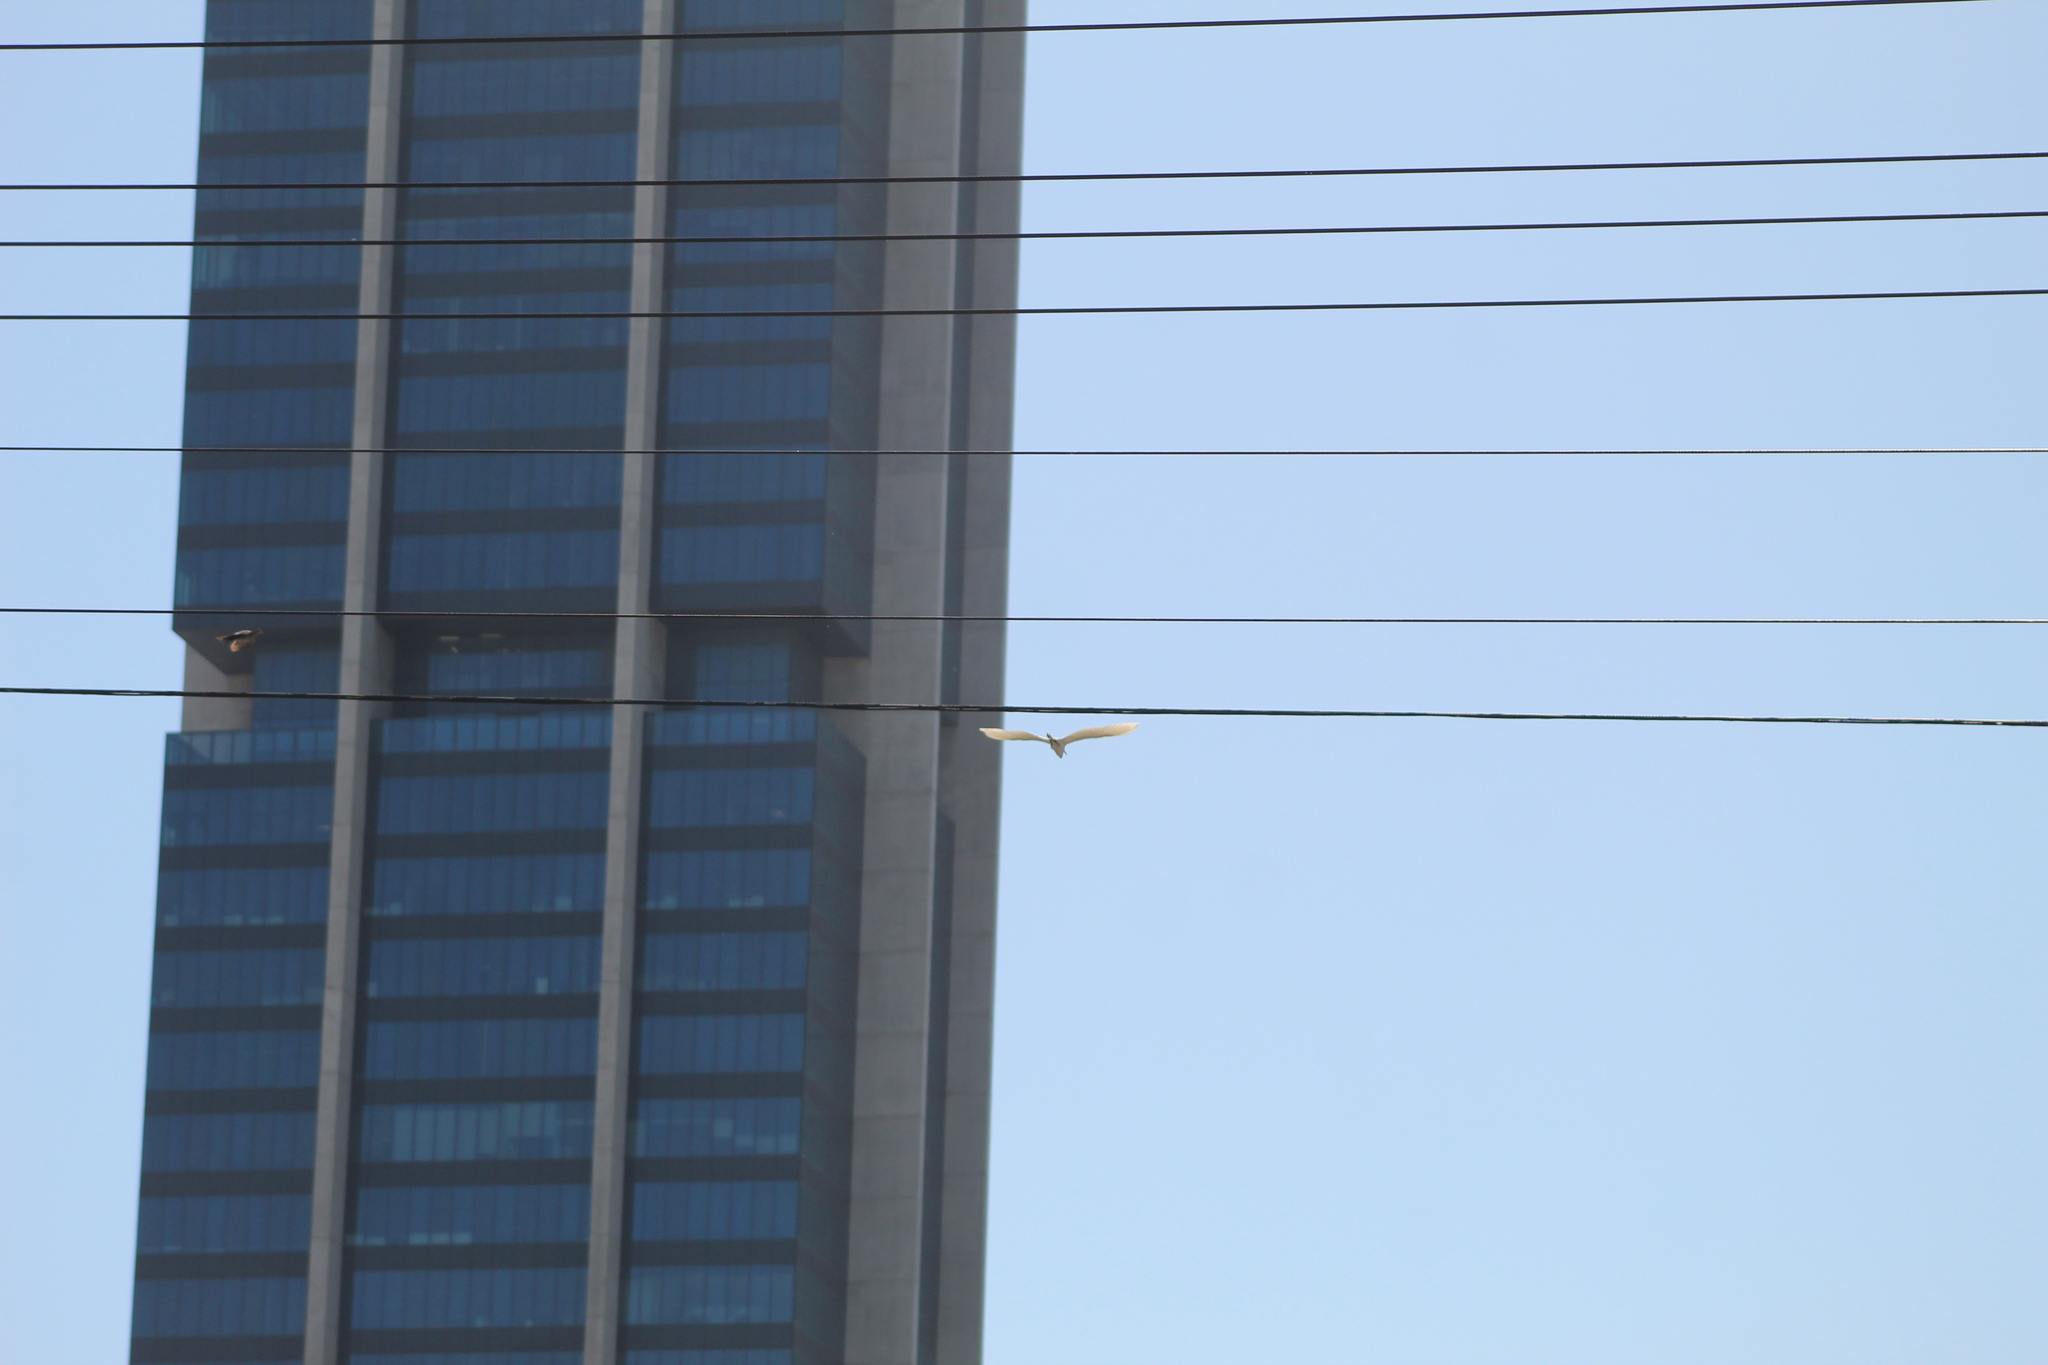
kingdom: Animalia
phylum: Chordata
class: Aves
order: Pelecaniformes
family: Ardeidae
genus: Egretta
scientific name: Egretta thula
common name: Snowy egret
